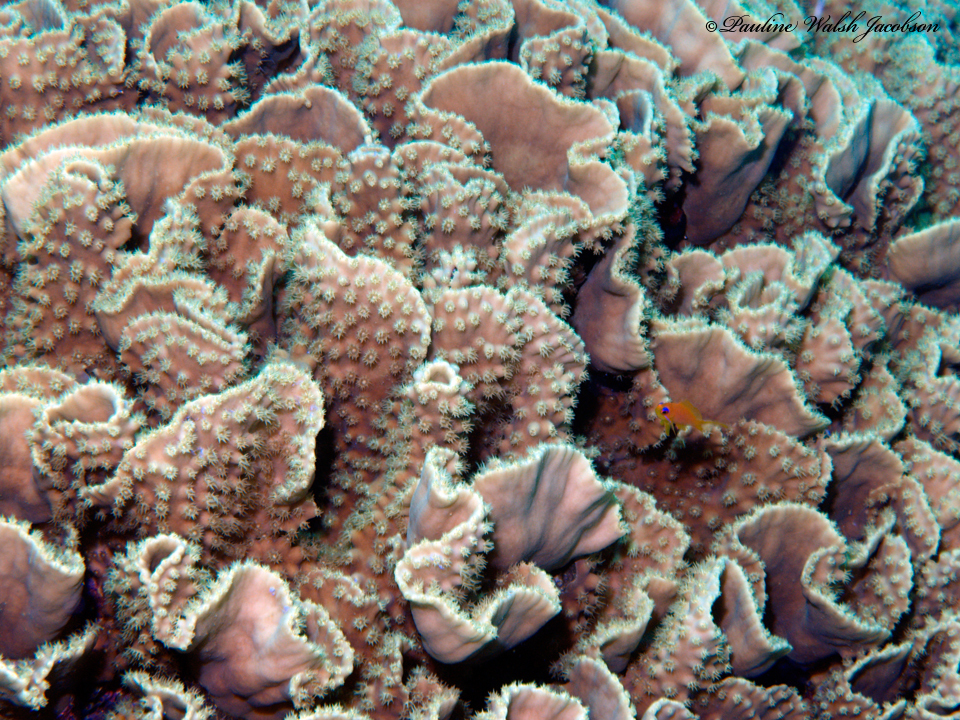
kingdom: Animalia
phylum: Cnidaria
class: Anthozoa
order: Scleractinia
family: Dendrophylliidae
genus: Turbinaria
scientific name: Turbinaria reniformis
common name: Disc coral
